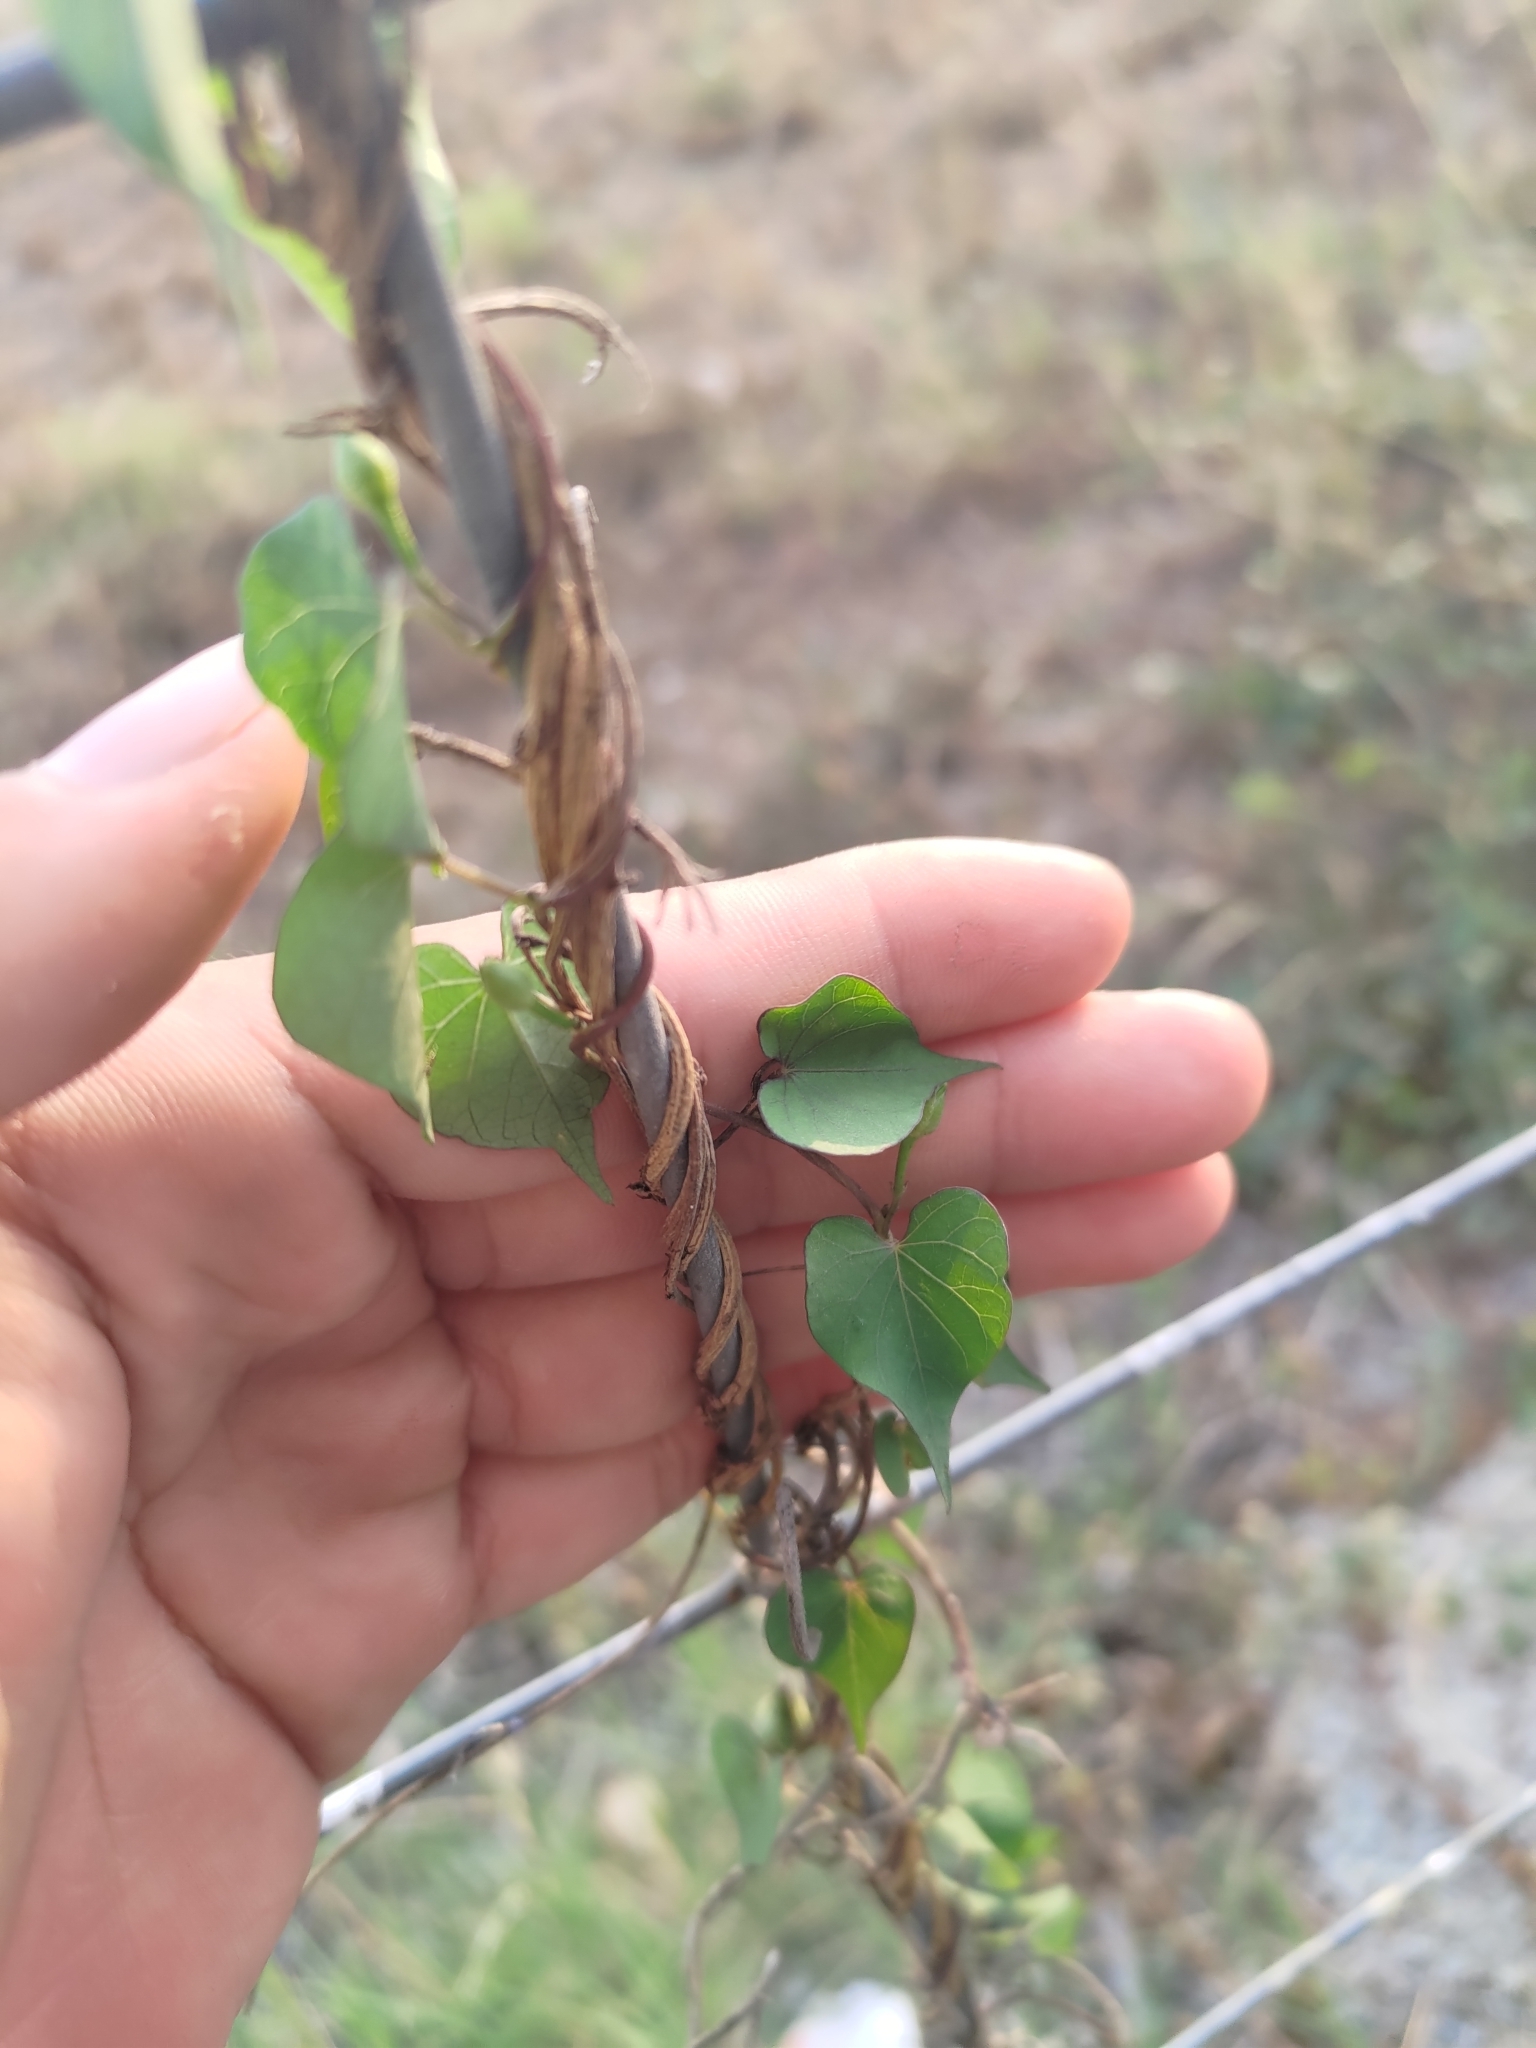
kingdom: Plantae
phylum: Tracheophyta
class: Magnoliopsida
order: Solanales
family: Convolvulaceae
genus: Ipomoea
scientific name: Ipomoea obscura
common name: Obscure morning-glory
